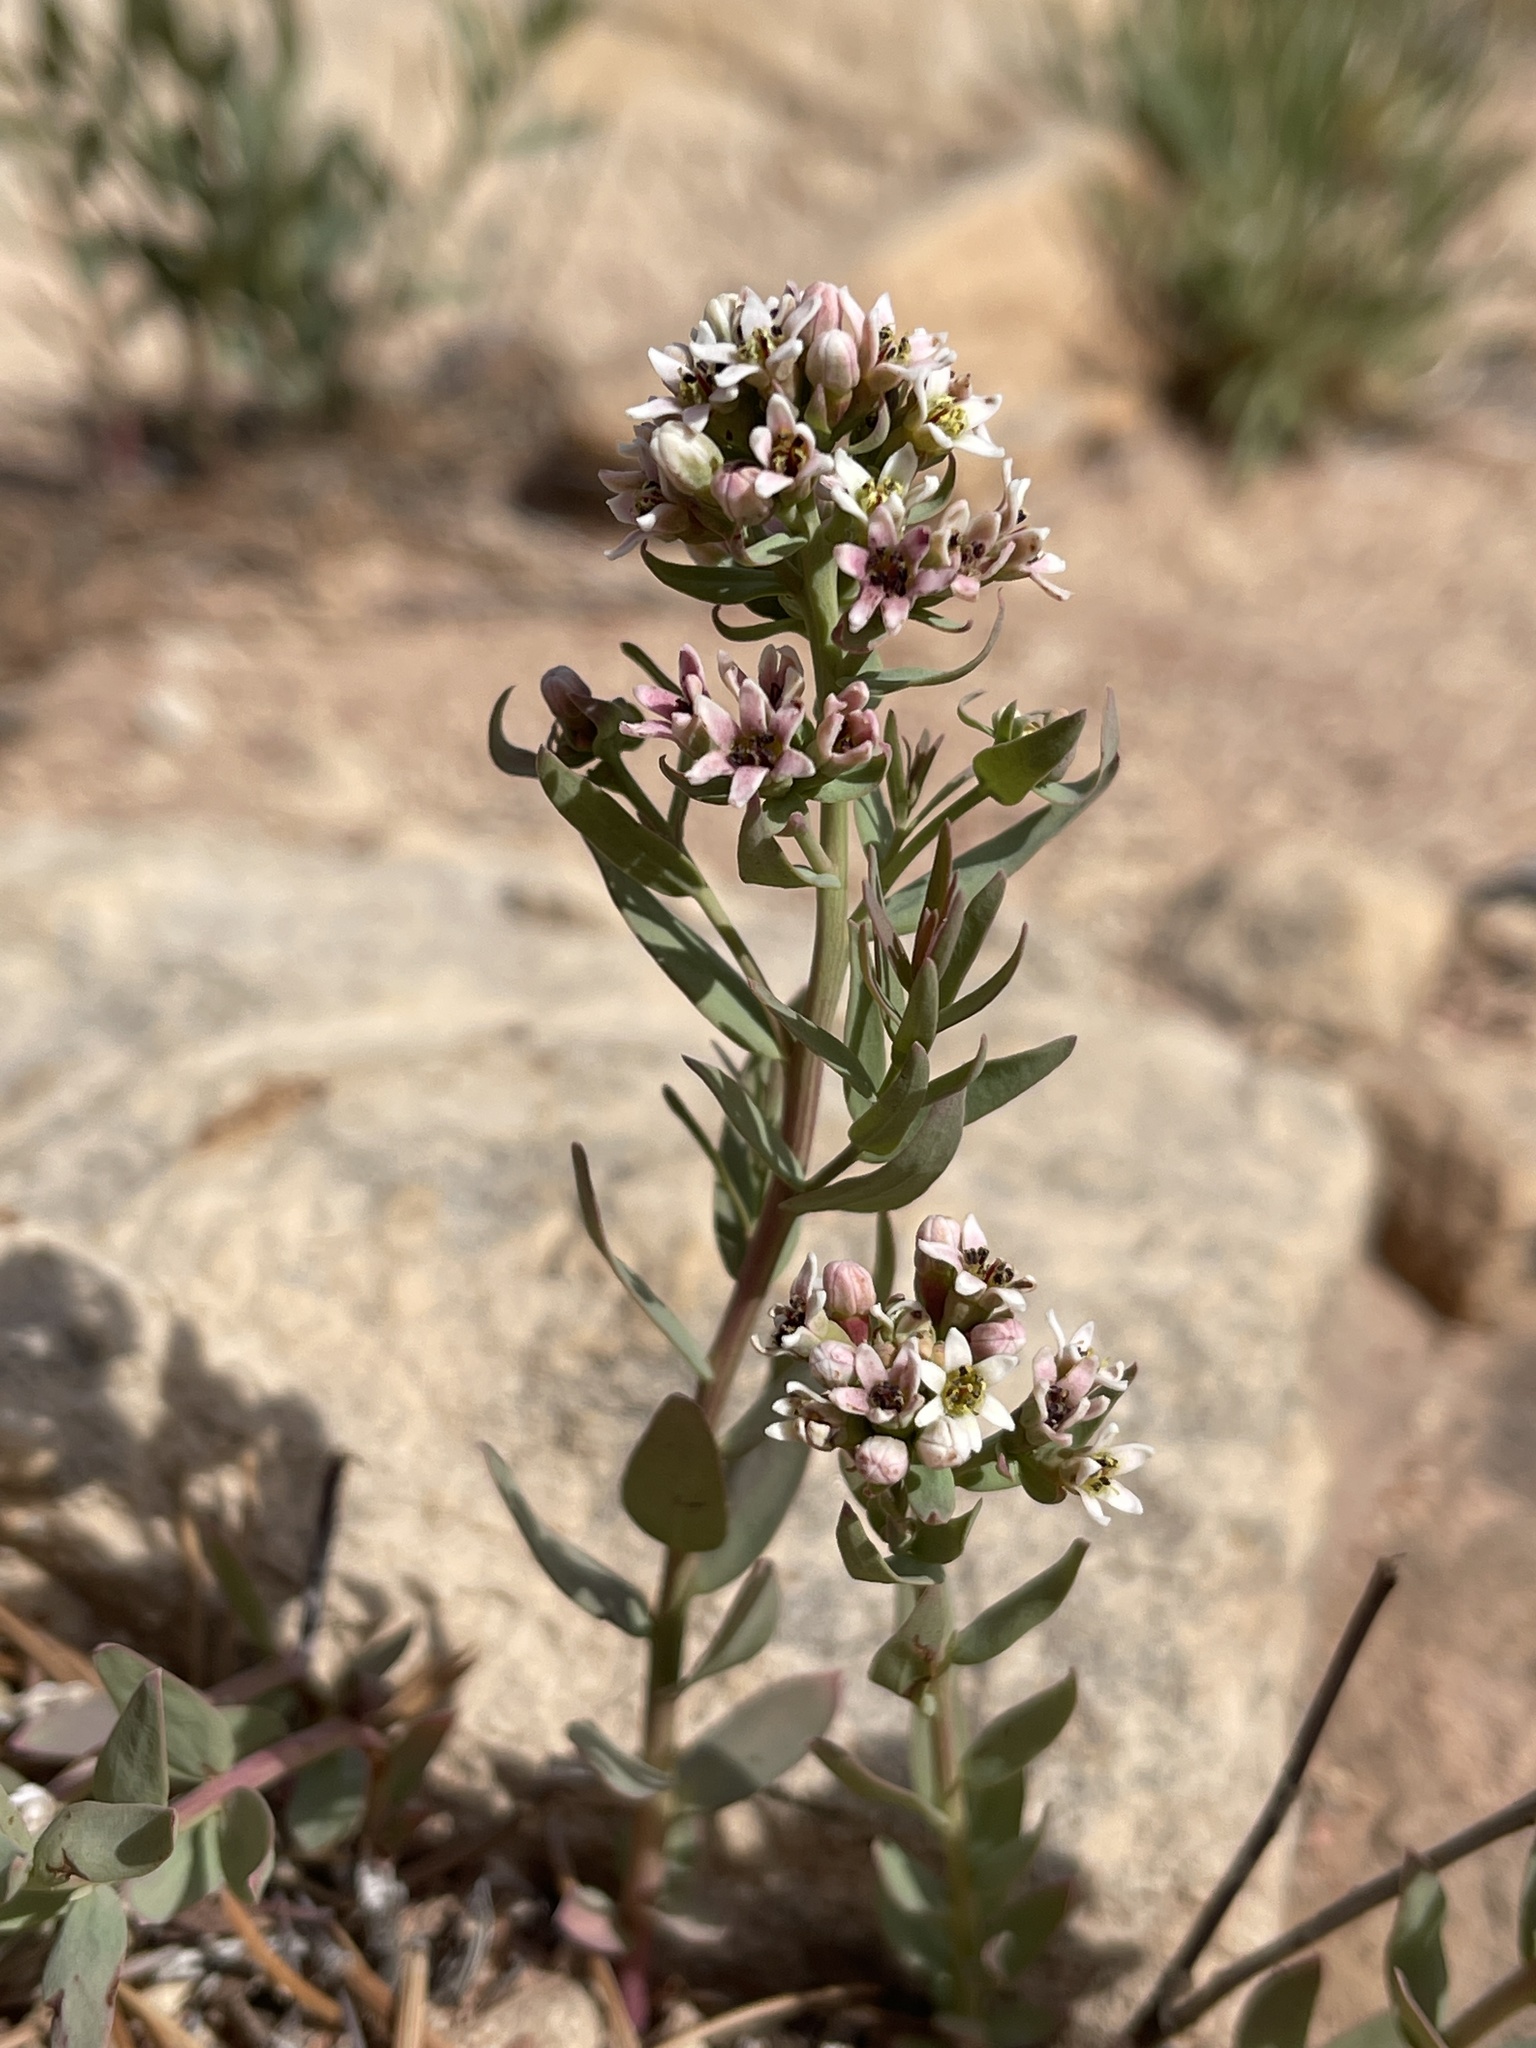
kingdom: Plantae
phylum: Tracheophyta
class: Magnoliopsida
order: Santalales
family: Comandraceae
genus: Comandra
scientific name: Comandra umbellata
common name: Bastard toadflax
